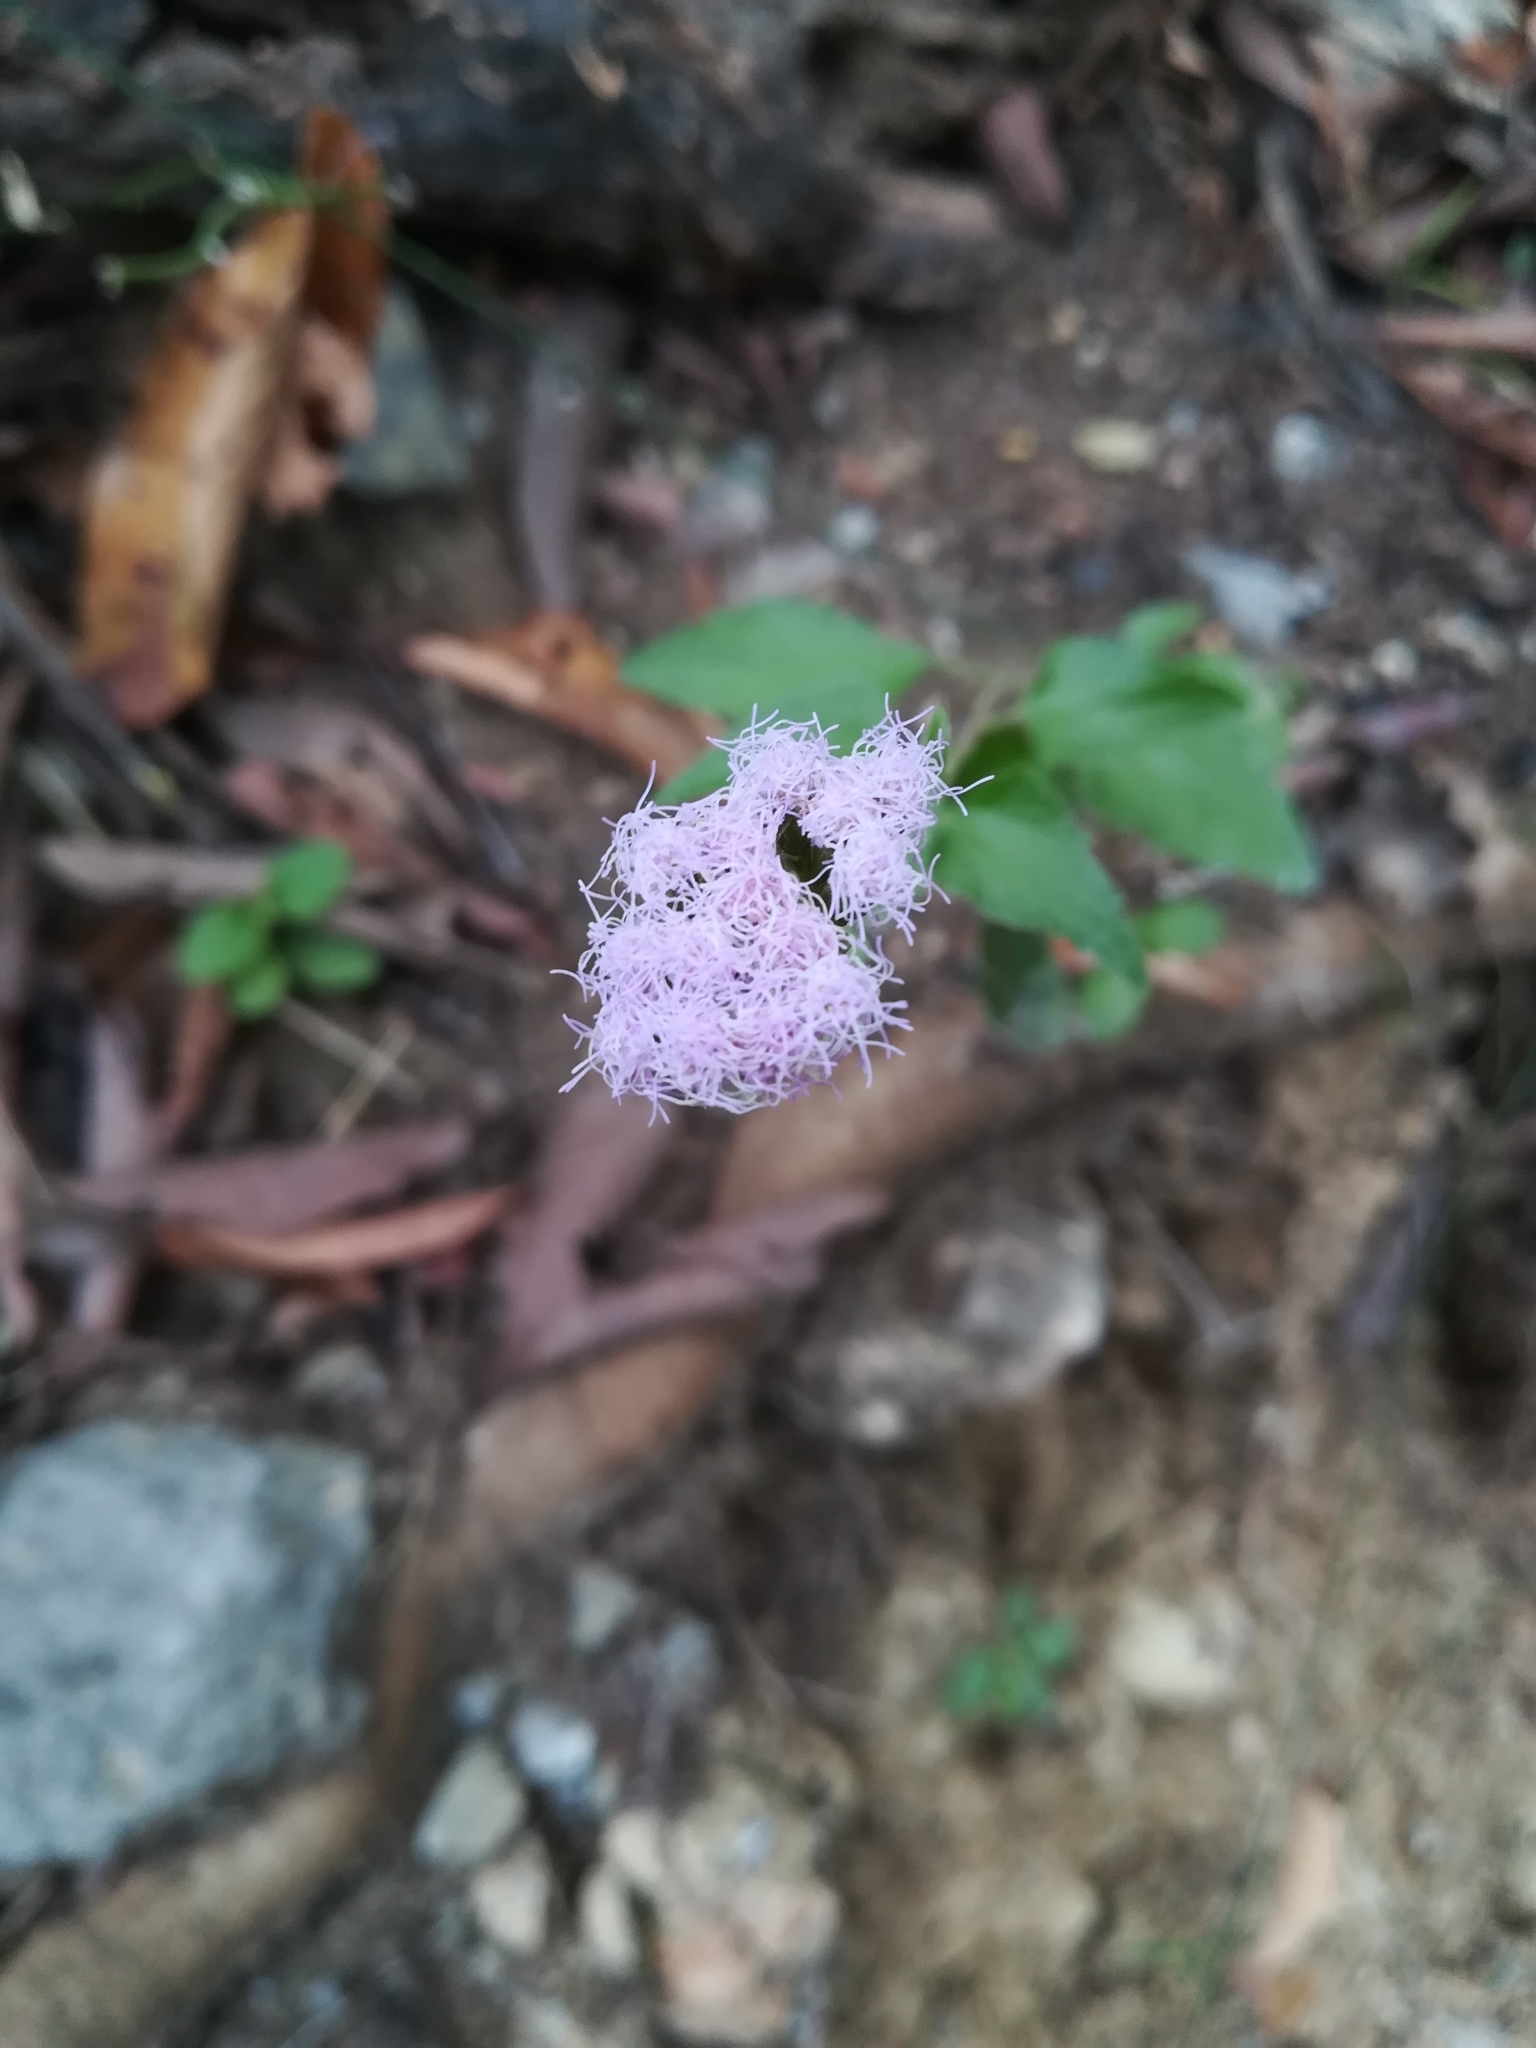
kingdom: Plantae
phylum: Tracheophyta
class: Magnoliopsida
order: Asterales
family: Asteraceae
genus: Chromolaena
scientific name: Chromolaena odorata
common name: Siamweed
